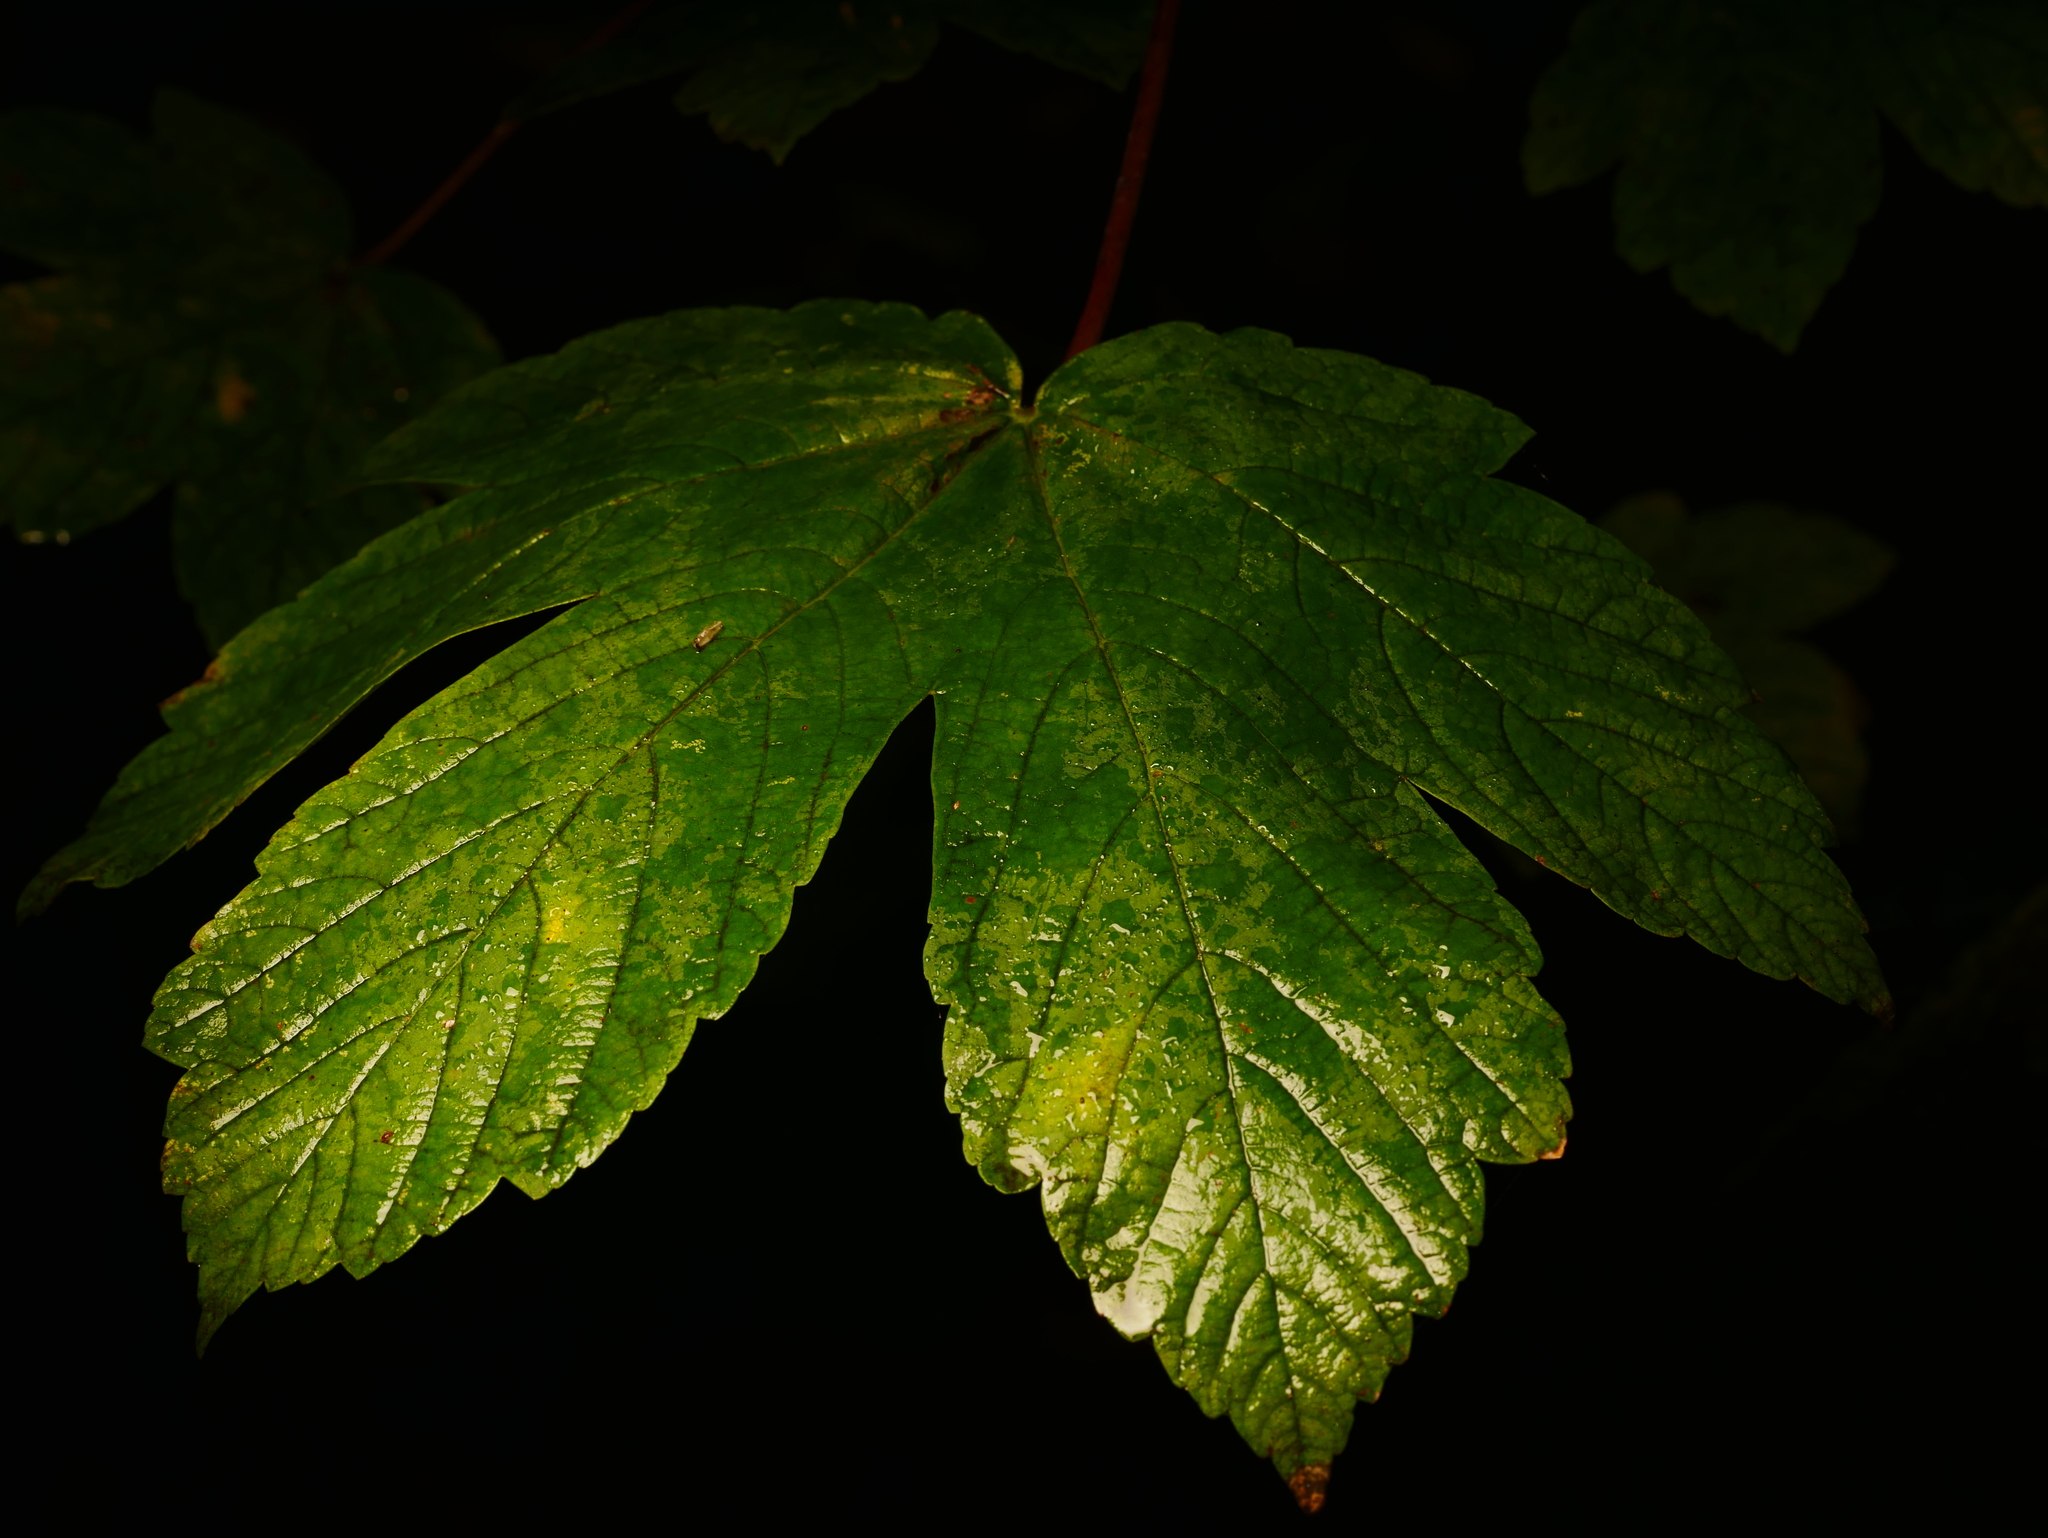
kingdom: Plantae
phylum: Tracheophyta
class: Magnoliopsida
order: Sapindales
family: Sapindaceae
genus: Acer
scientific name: Acer pseudoplatanus
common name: Sycamore
